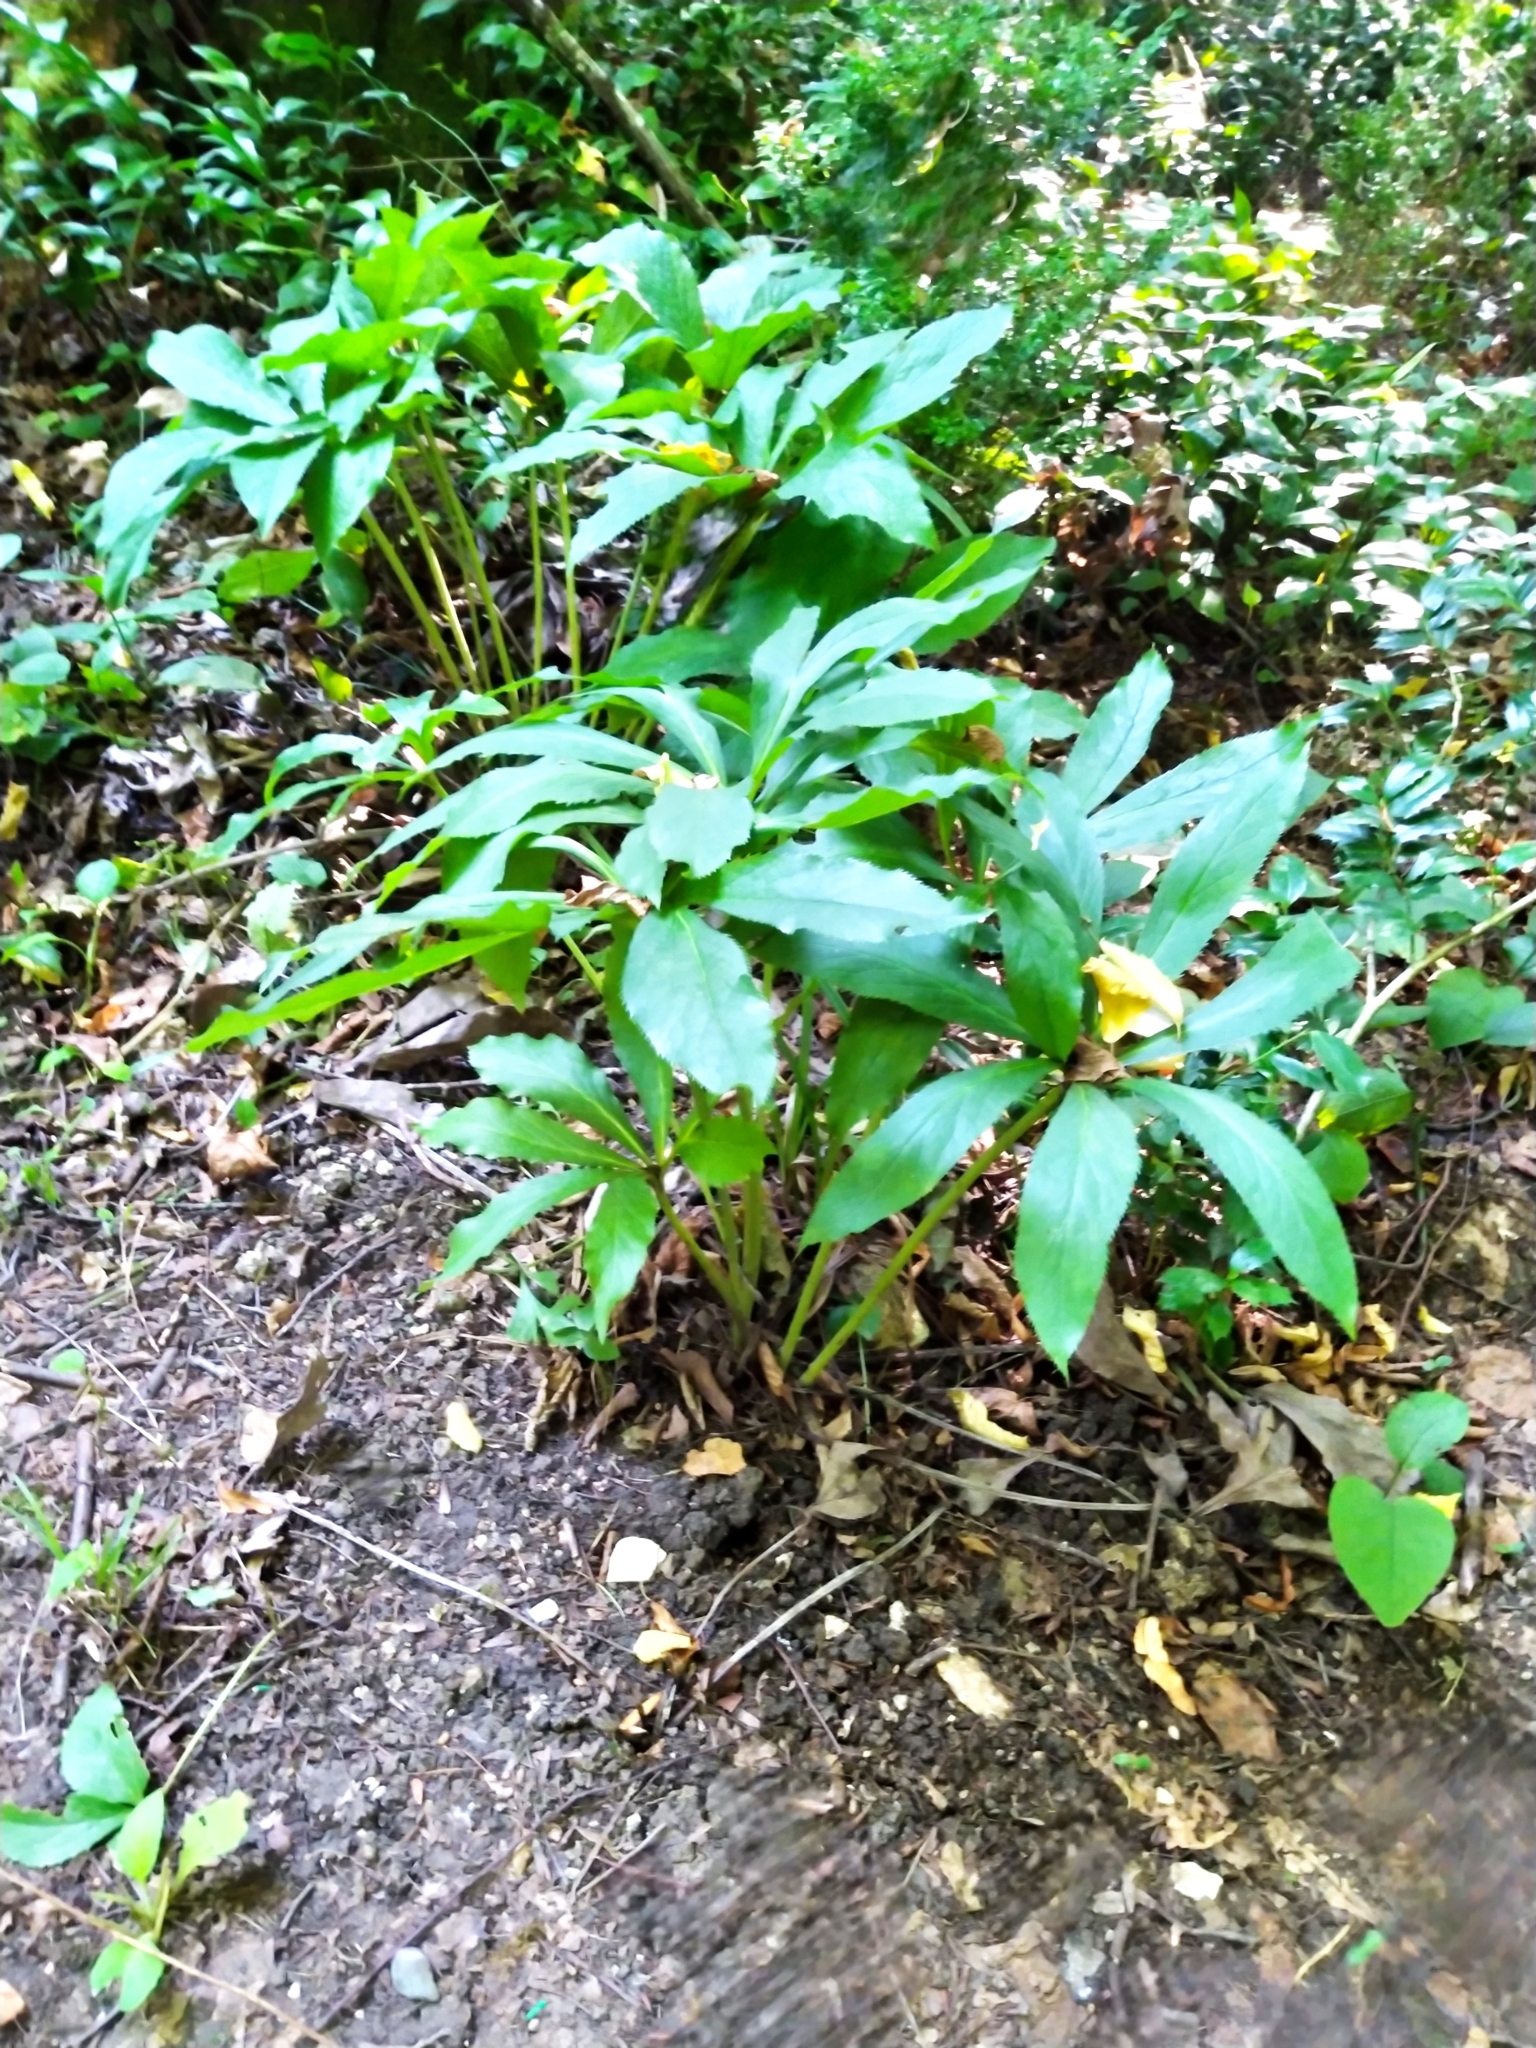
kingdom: Plantae
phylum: Tracheophyta
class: Magnoliopsida
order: Ranunculales
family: Ranunculaceae
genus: Helleborus
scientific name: Helleborus orientalis
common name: Lenten-rose
